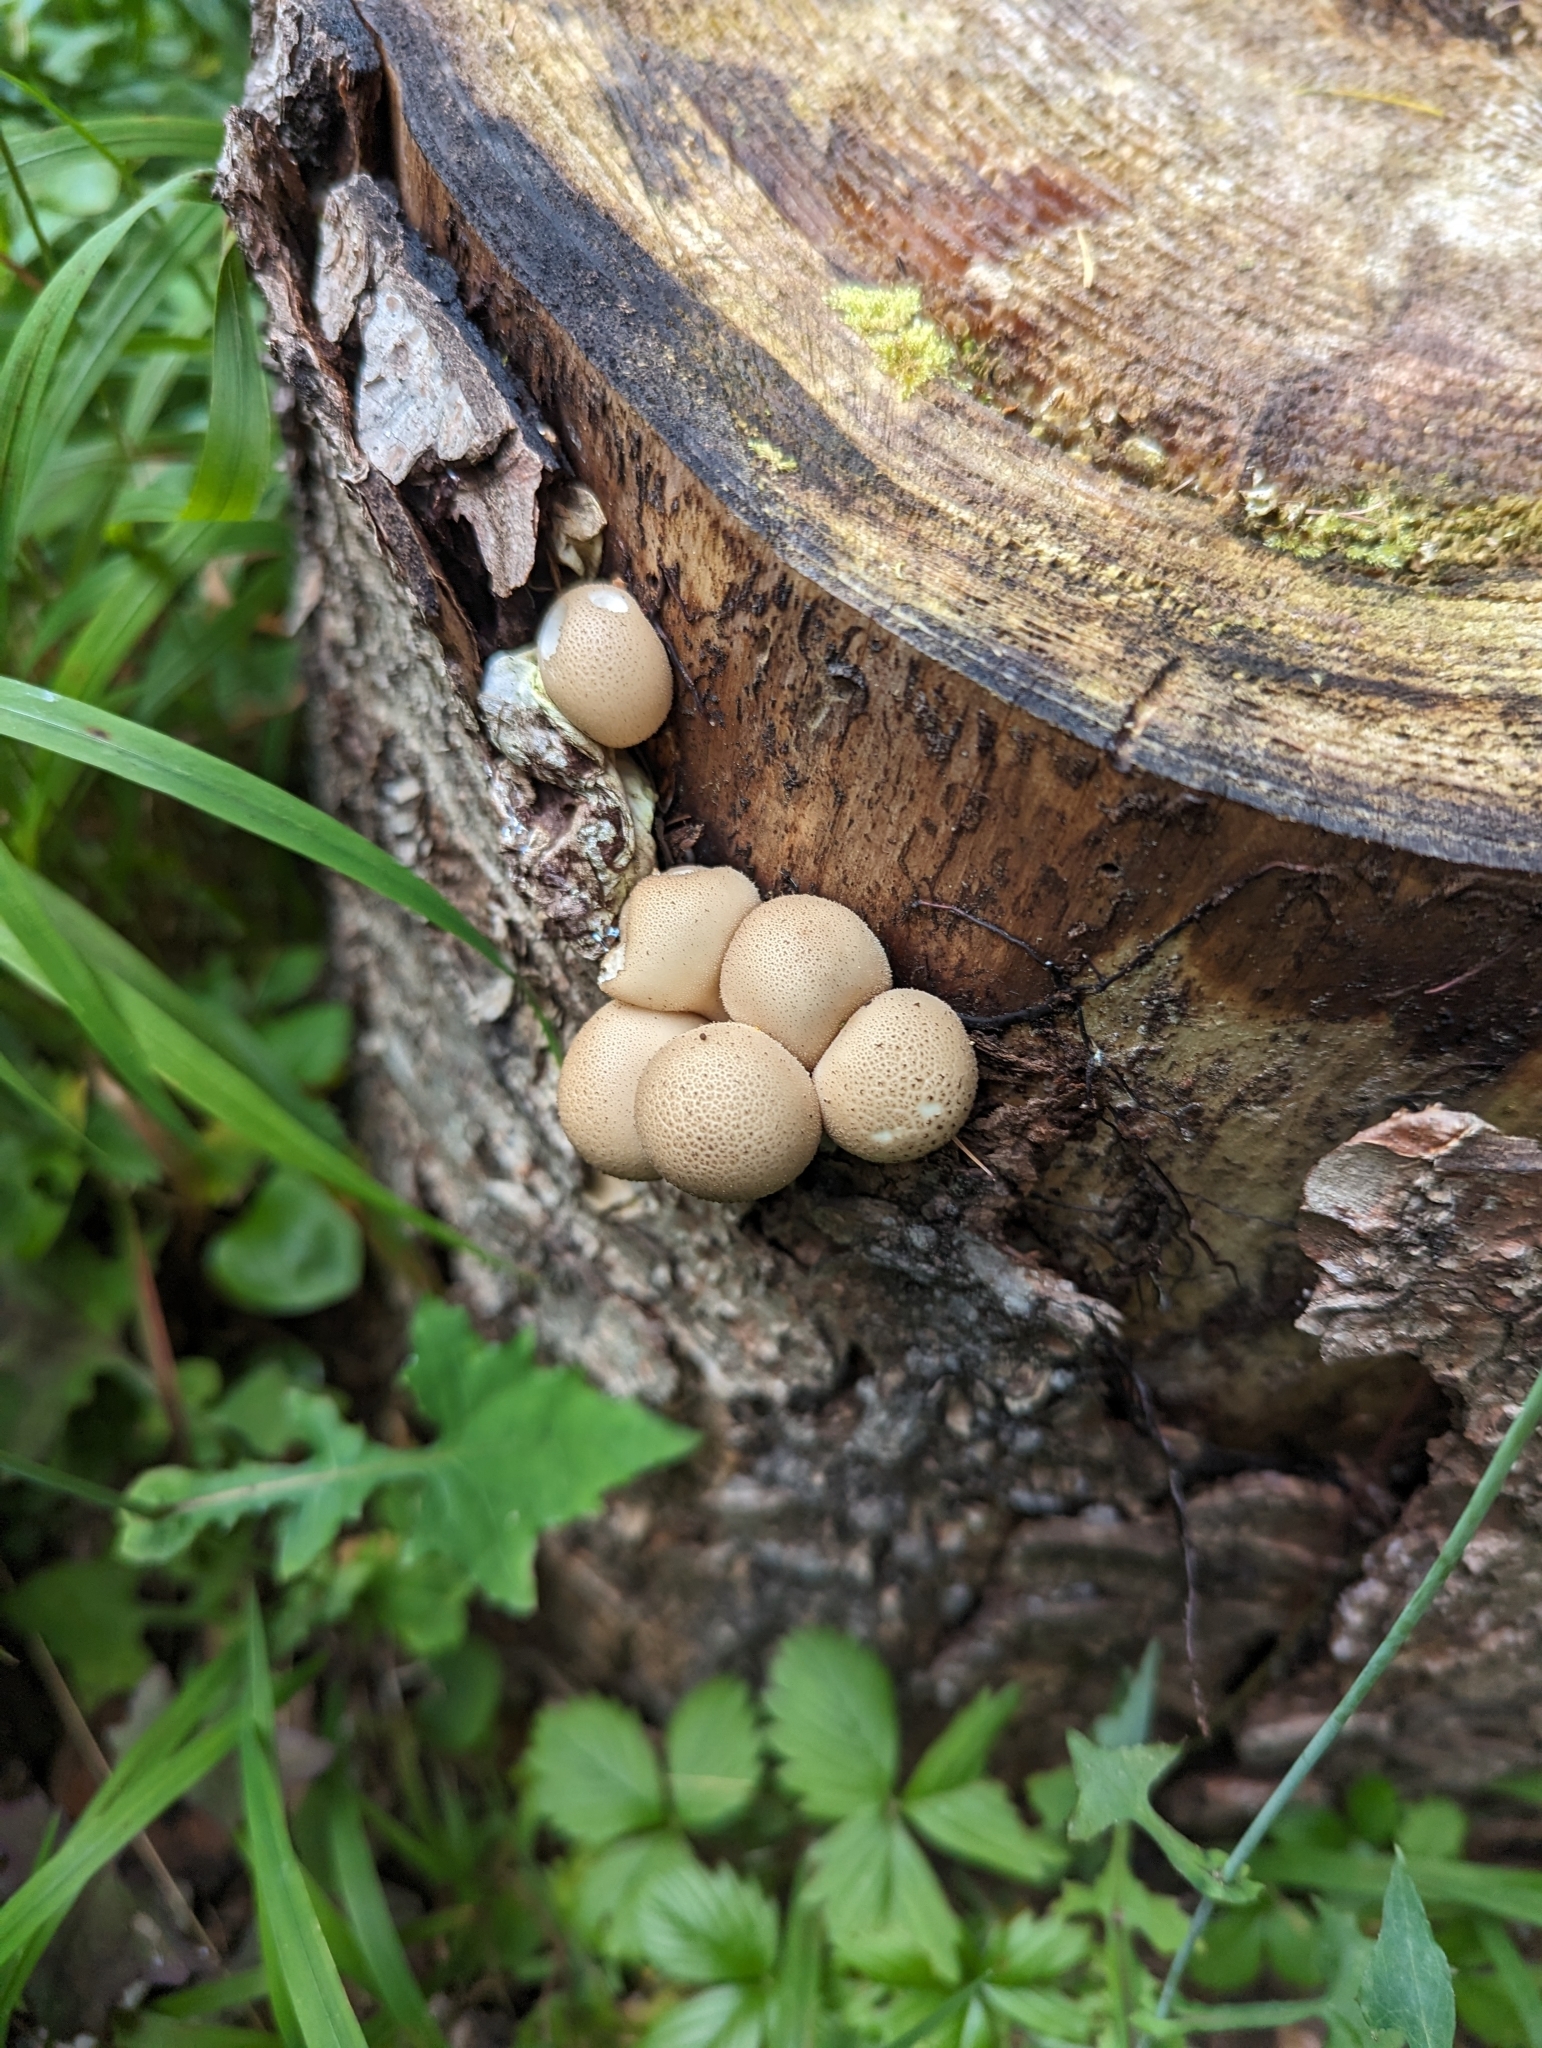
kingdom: Fungi
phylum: Basidiomycota
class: Agaricomycetes
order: Agaricales
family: Lycoperdaceae
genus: Apioperdon
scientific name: Apioperdon pyriforme
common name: Pear-shaped puffball
